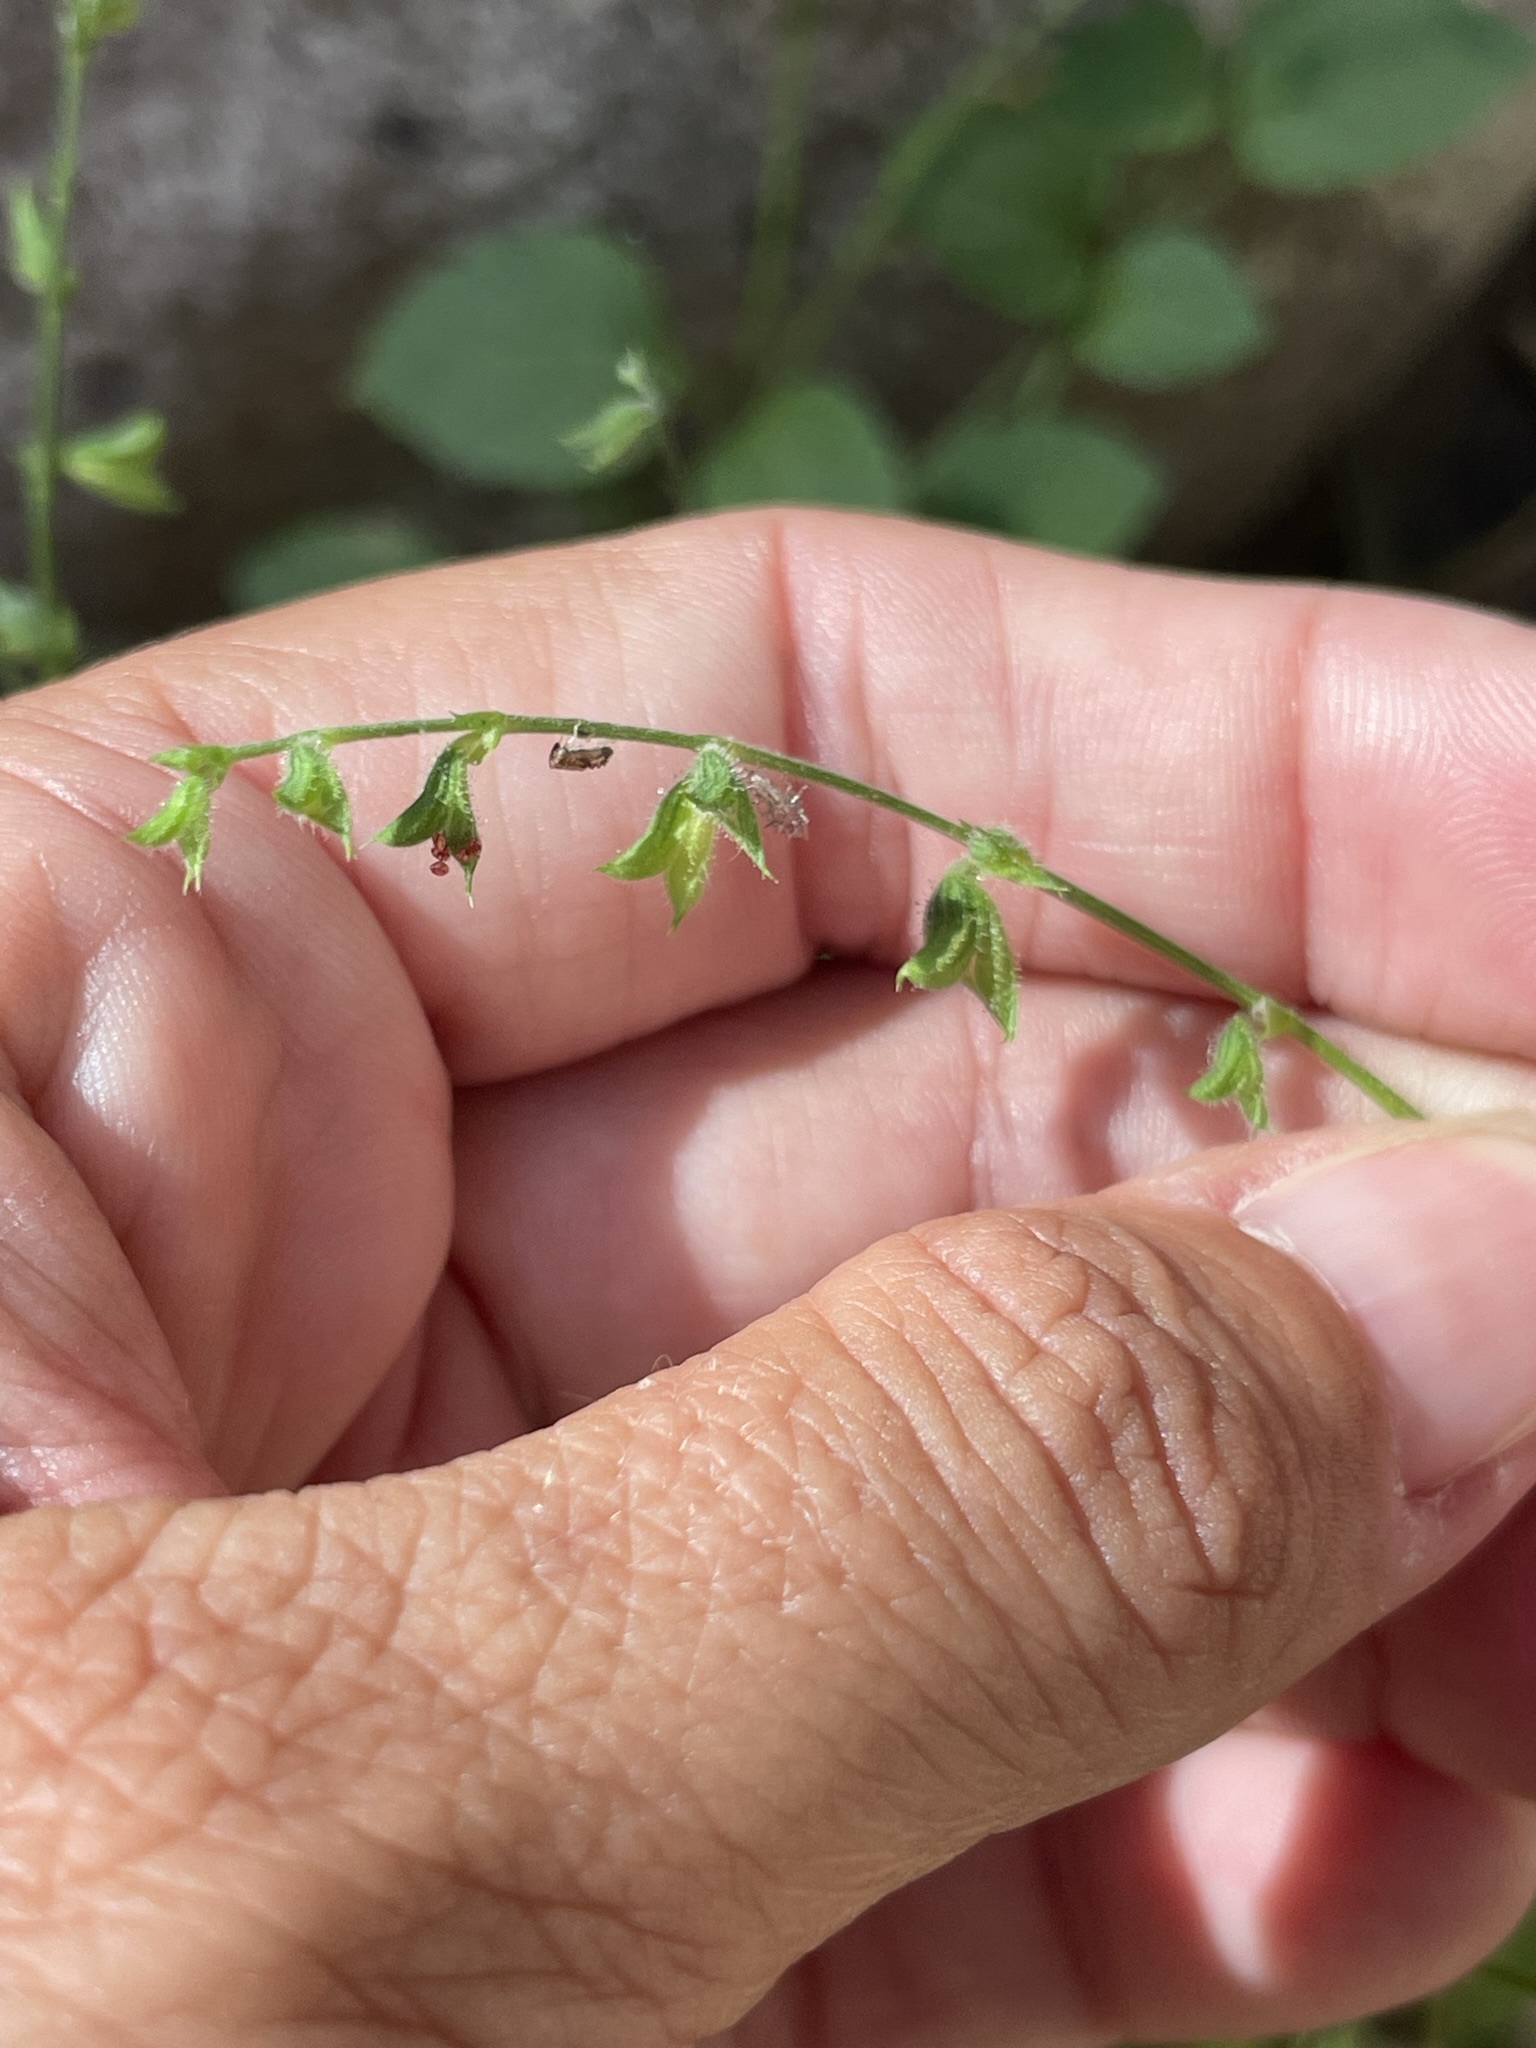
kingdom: Plantae
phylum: Tracheophyta
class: Magnoliopsida
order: Lamiales
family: Lamiaceae
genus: Salvia
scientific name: Salvia misella
